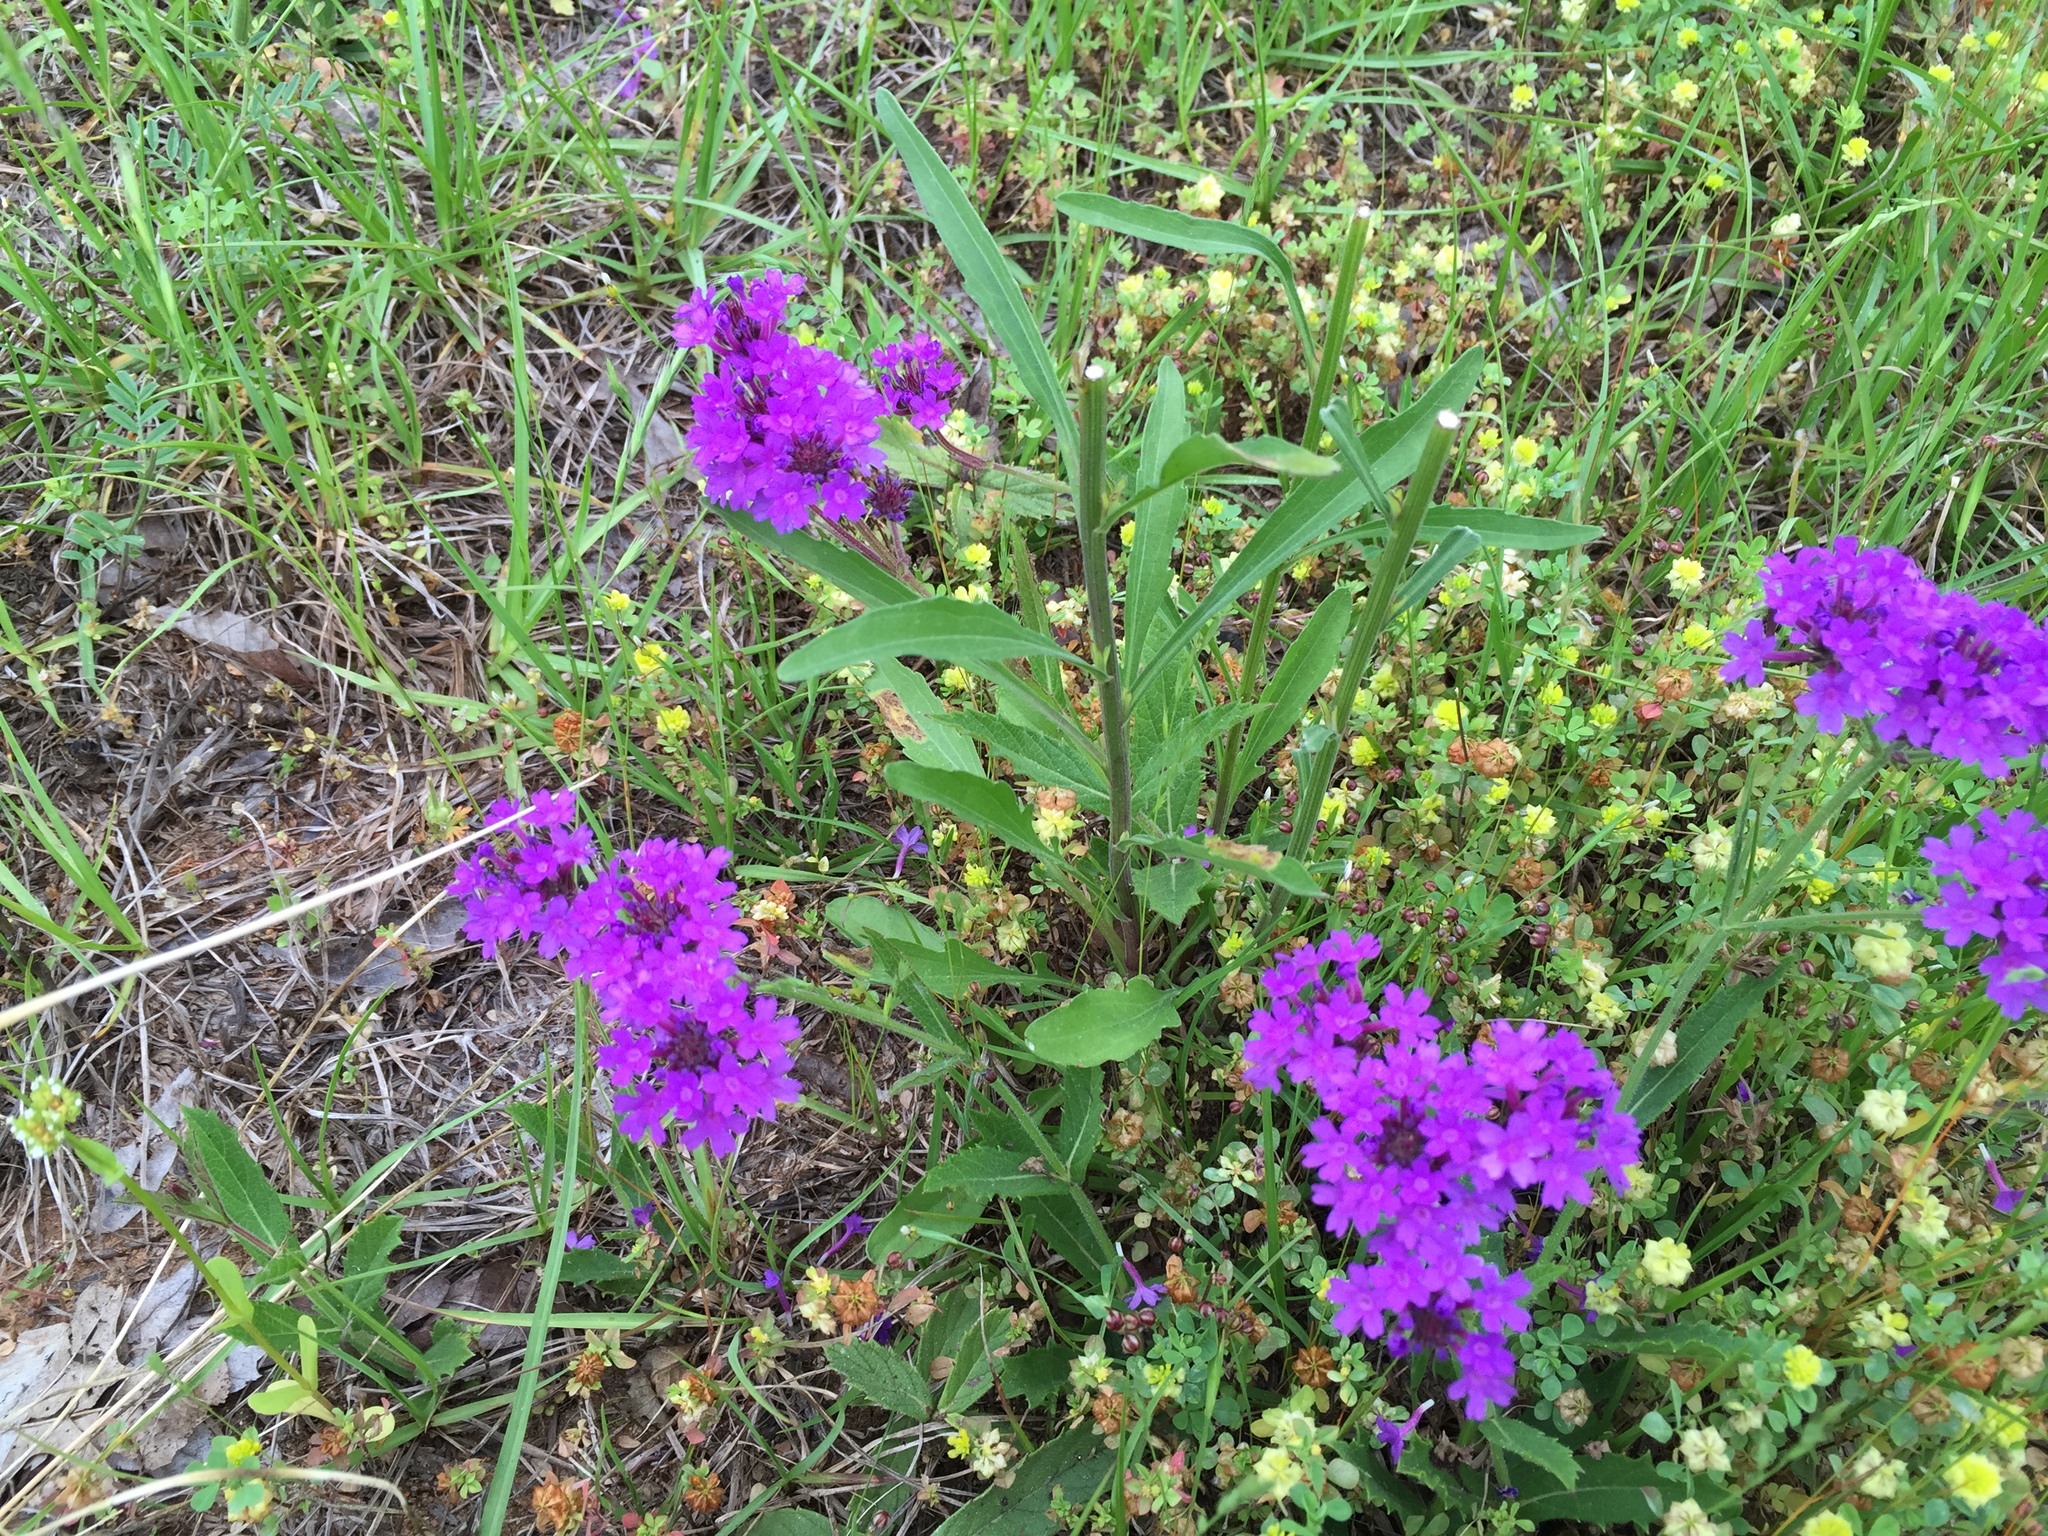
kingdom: Plantae
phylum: Tracheophyta
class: Magnoliopsida
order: Lamiales
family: Verbenaceae
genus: Verbena
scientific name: Verbena rigida
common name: Slender vervain
